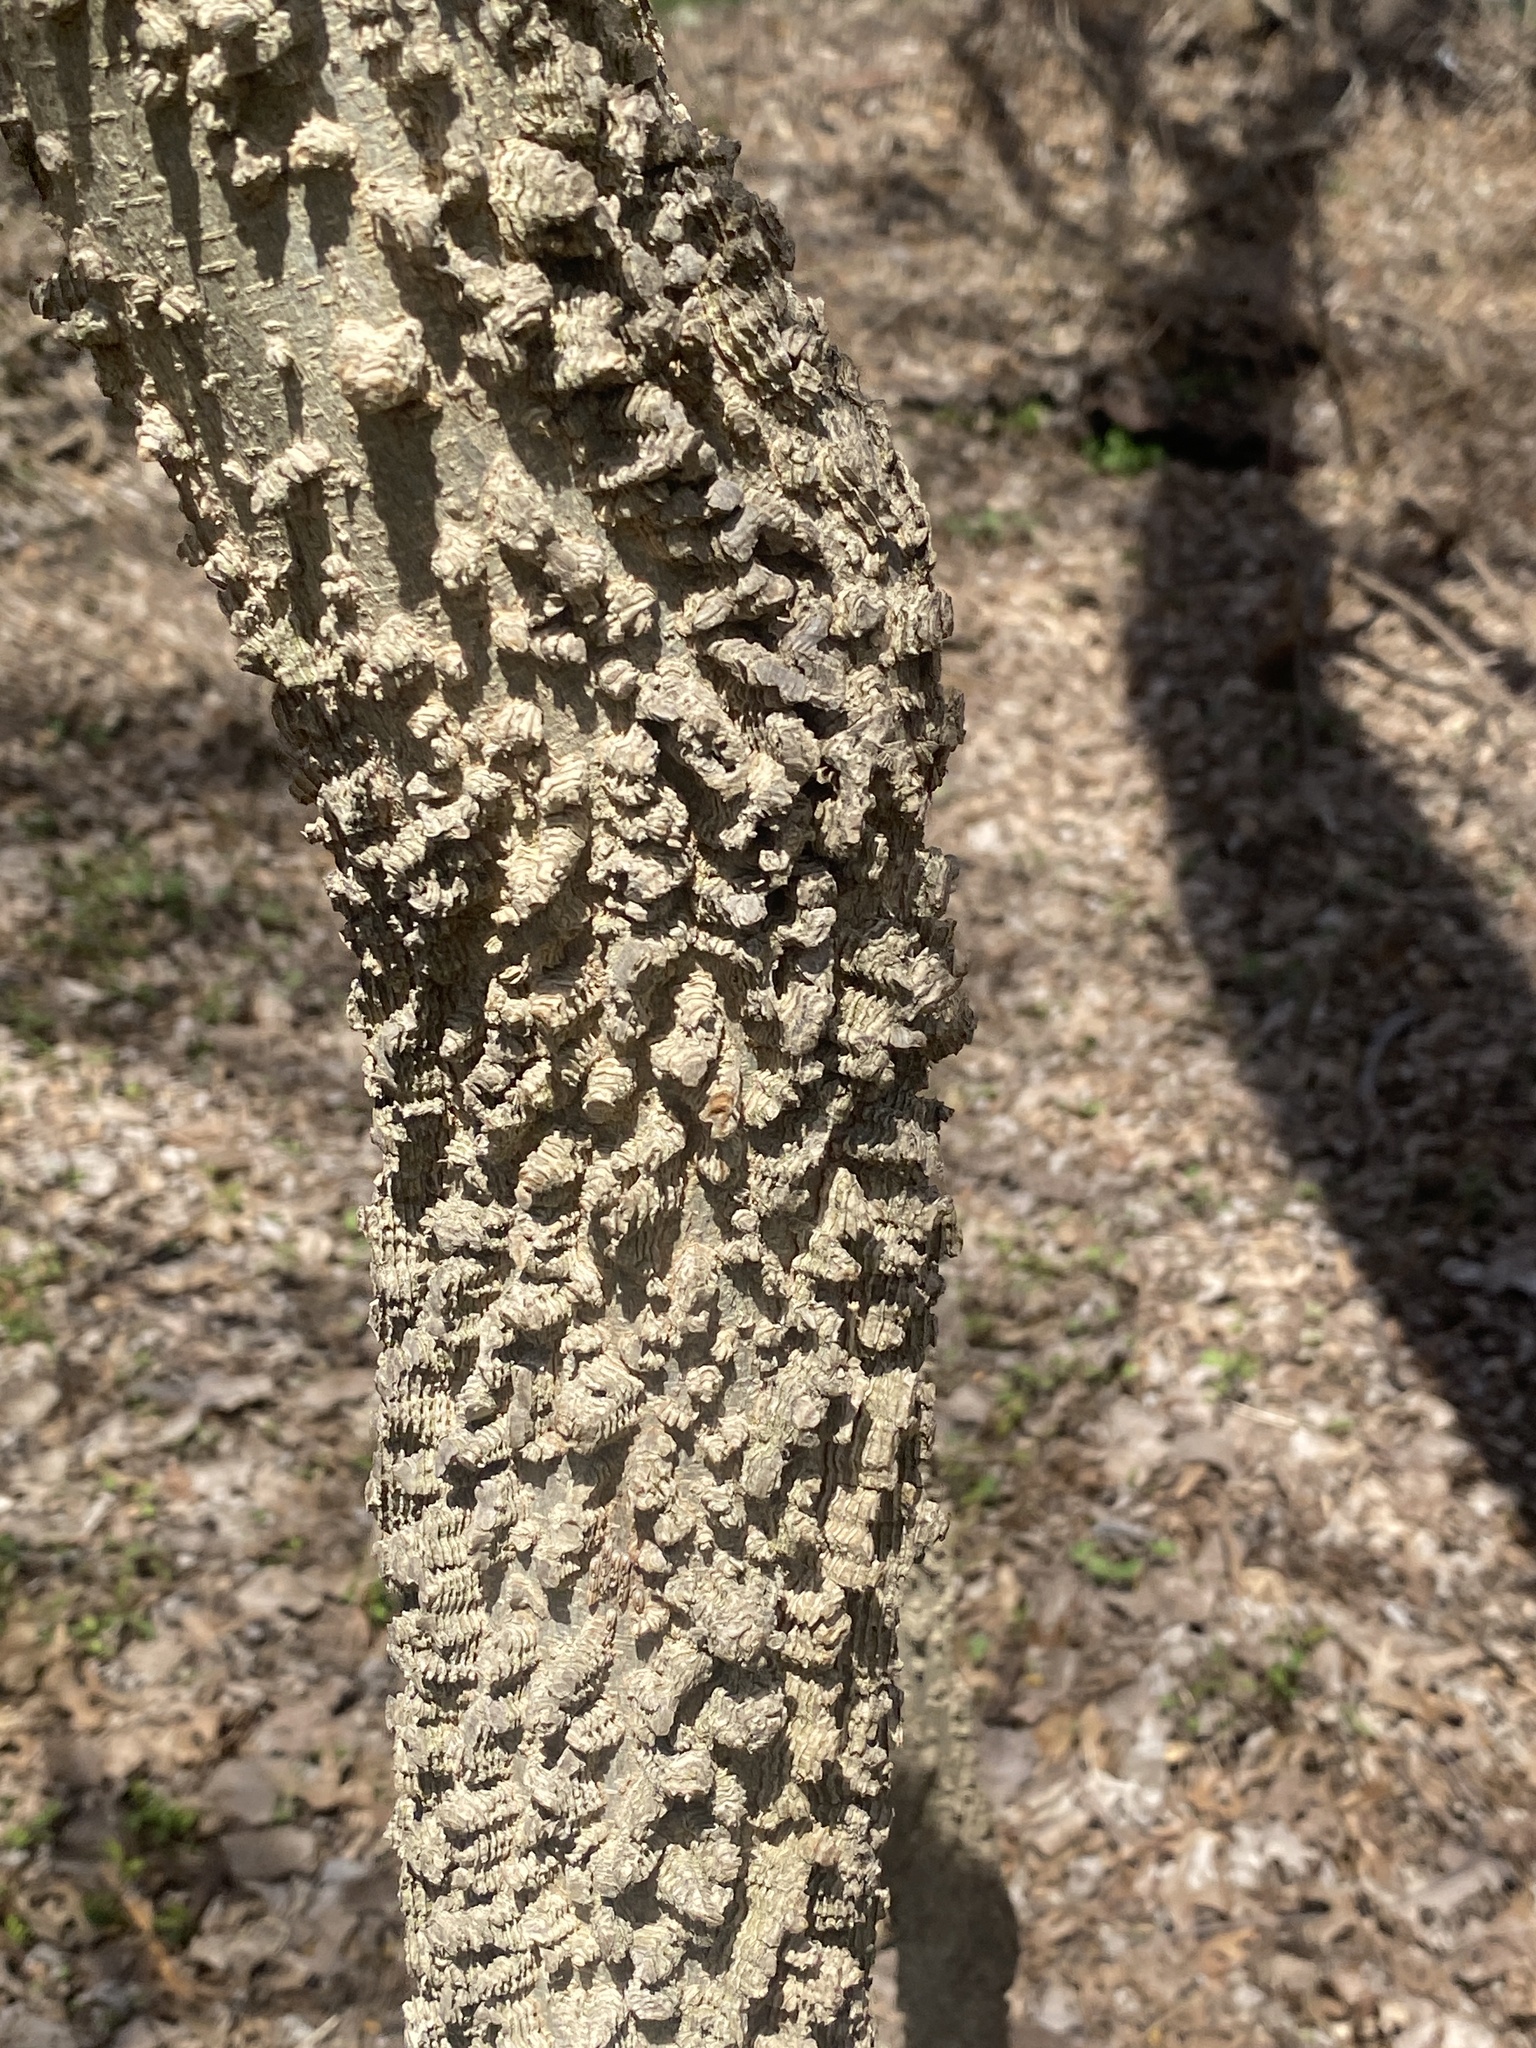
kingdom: Plantae
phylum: Tracheophyta
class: Magnoliopsida
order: Rosales
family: Cannabaceae
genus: Celtis
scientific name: Celtis occidentalis
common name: Common hackberry
